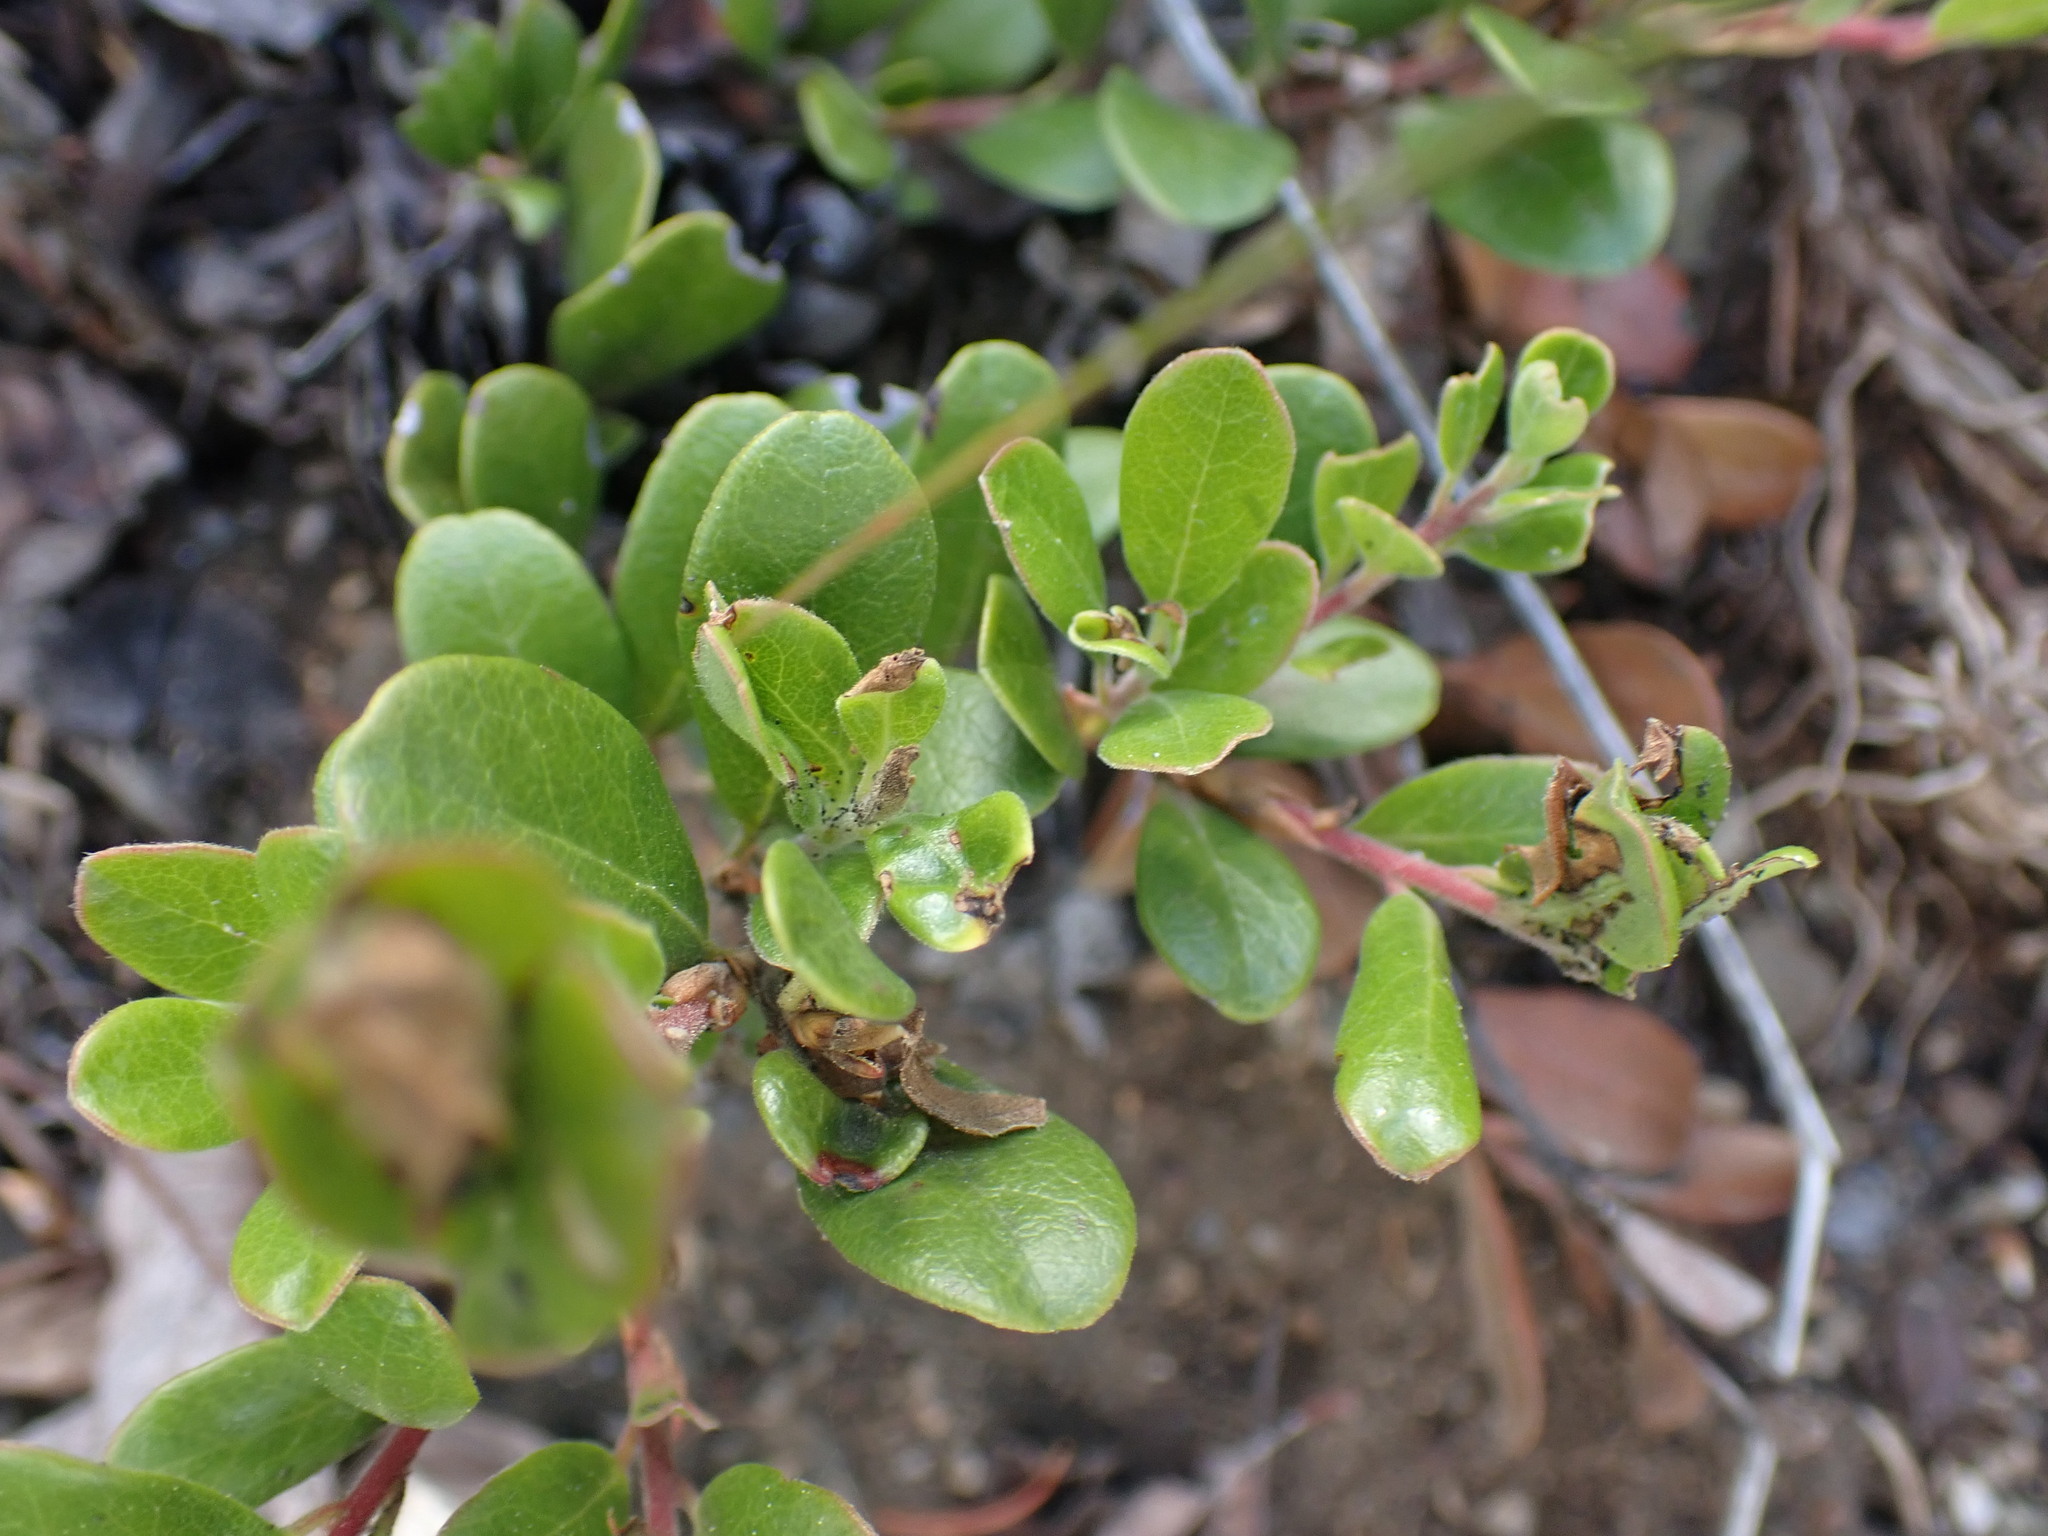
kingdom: Plantae
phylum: Tracheophyta
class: Magnoliopsida
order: Ericales
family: Ericaceae
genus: Arctostaphylos
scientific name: Arctostaphylos uva-ursi
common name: Bearberry
